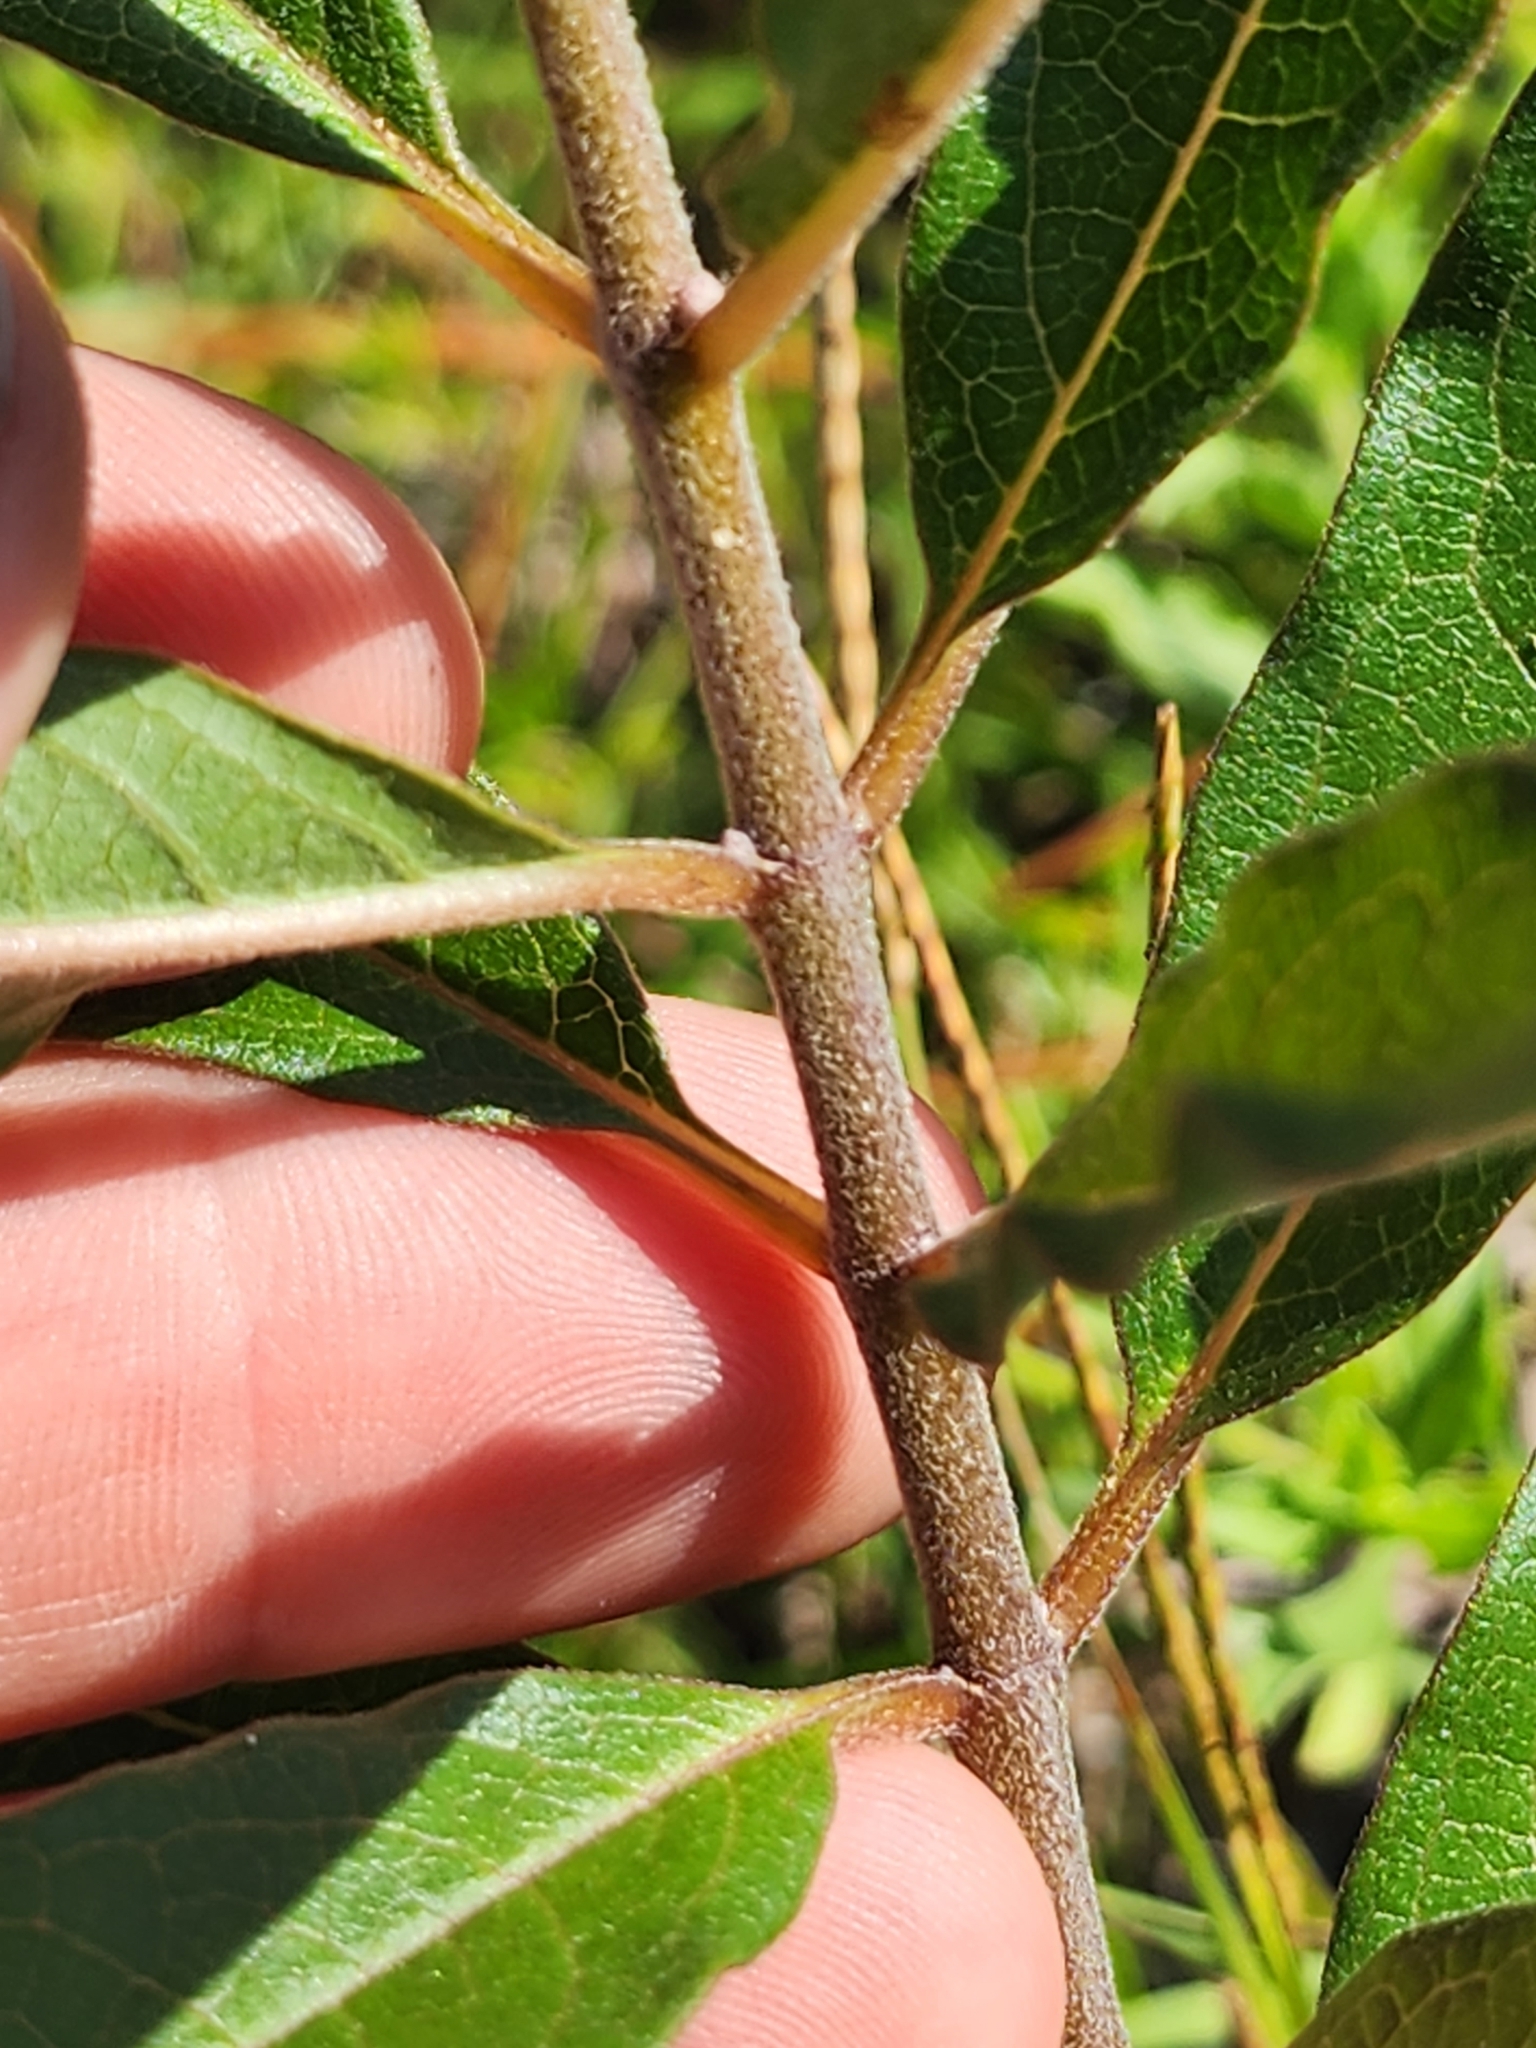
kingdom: Plantae
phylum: Tracheophyta
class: Magnoliopsida
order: Gentianales
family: Apocynaceae
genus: Asclepias
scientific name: Asclepias tomentosa
